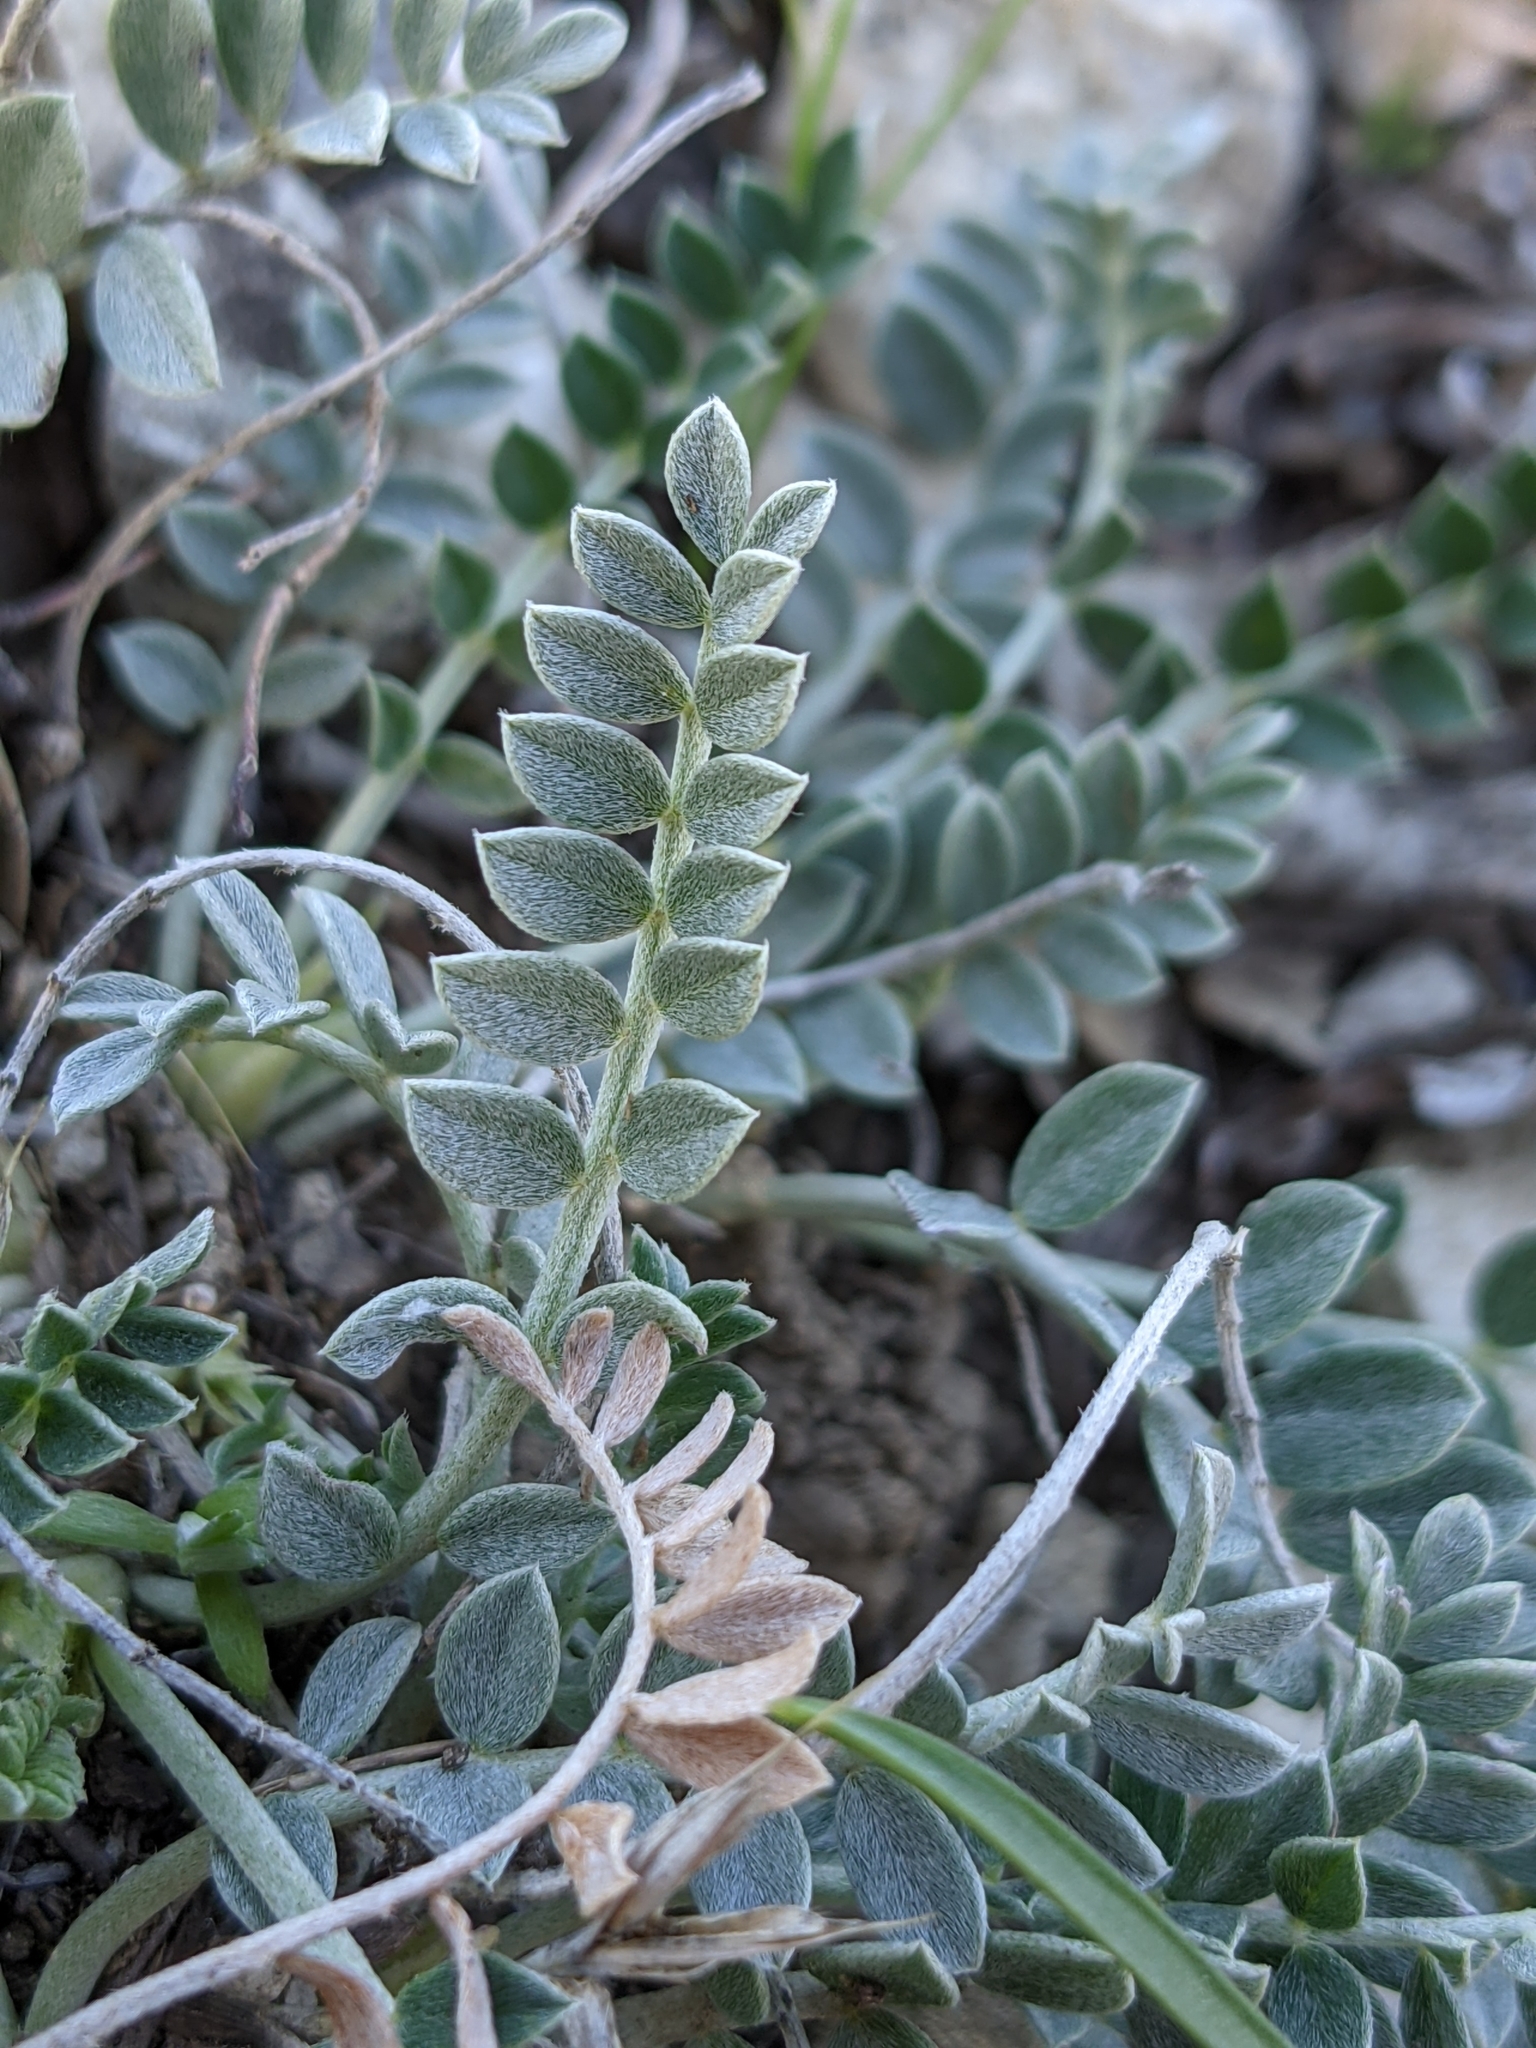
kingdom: Plantae
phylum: Tracheophyta
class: Magnoliopsida
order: Fabales
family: Fabaceae
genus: Astragalus
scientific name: Astragalus incanus
